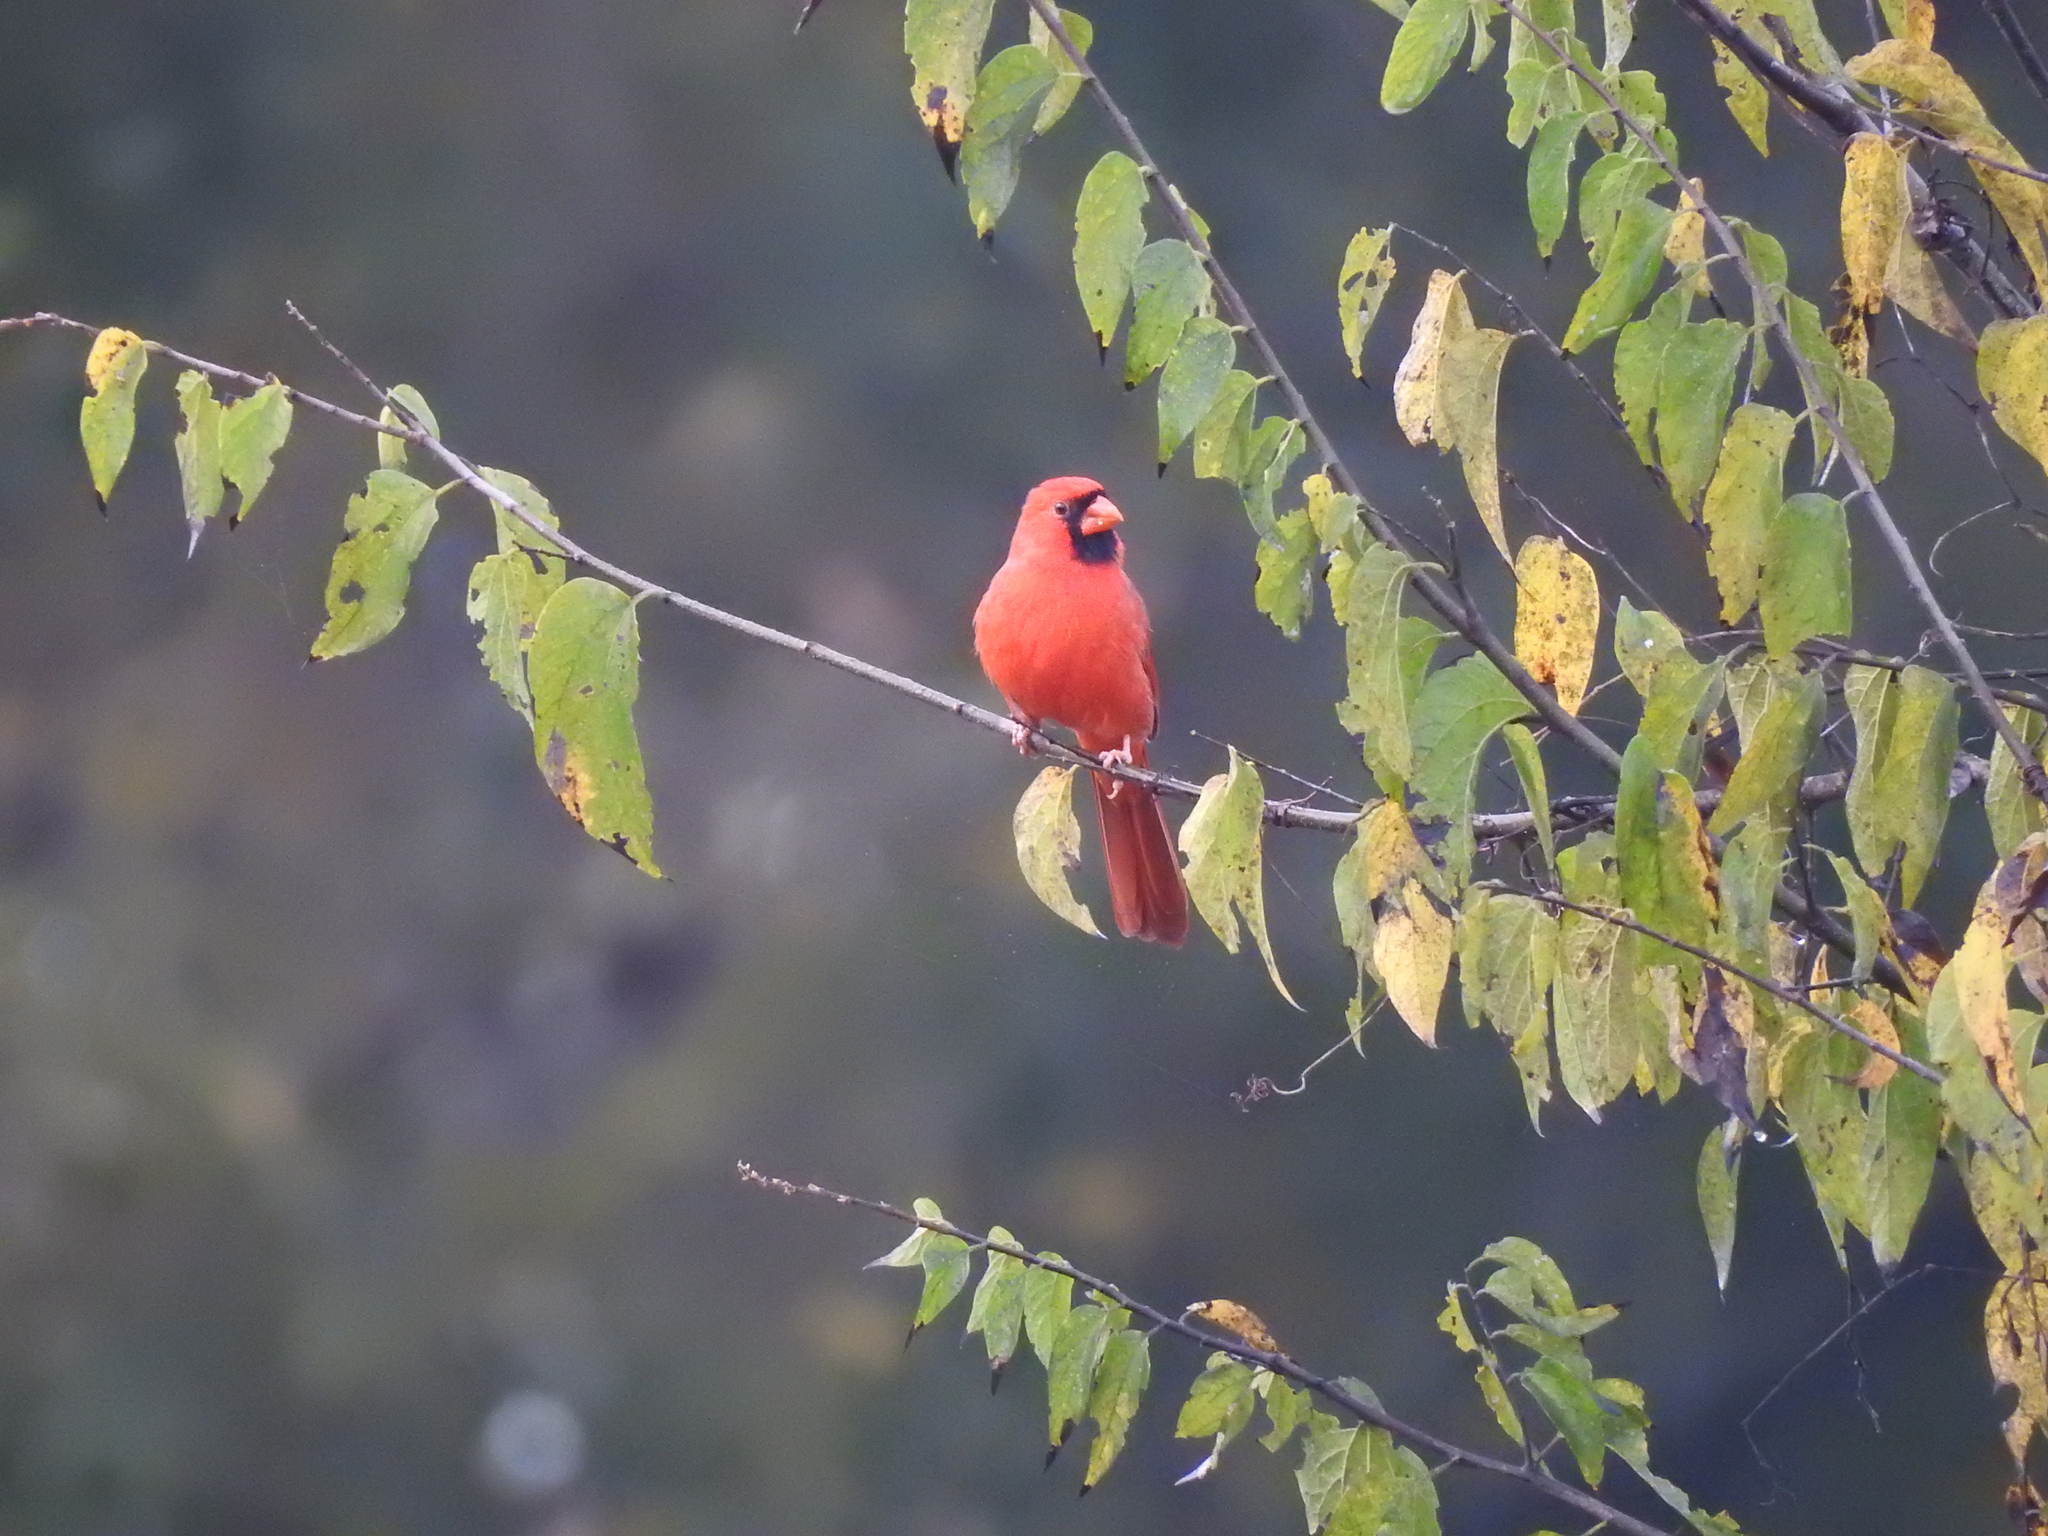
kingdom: Animalia
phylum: Chordata
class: Aves
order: Passeriformes
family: Cardinalidae
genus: Cardinalis
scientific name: Cardinalis cardinalis
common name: Northern cardinal
